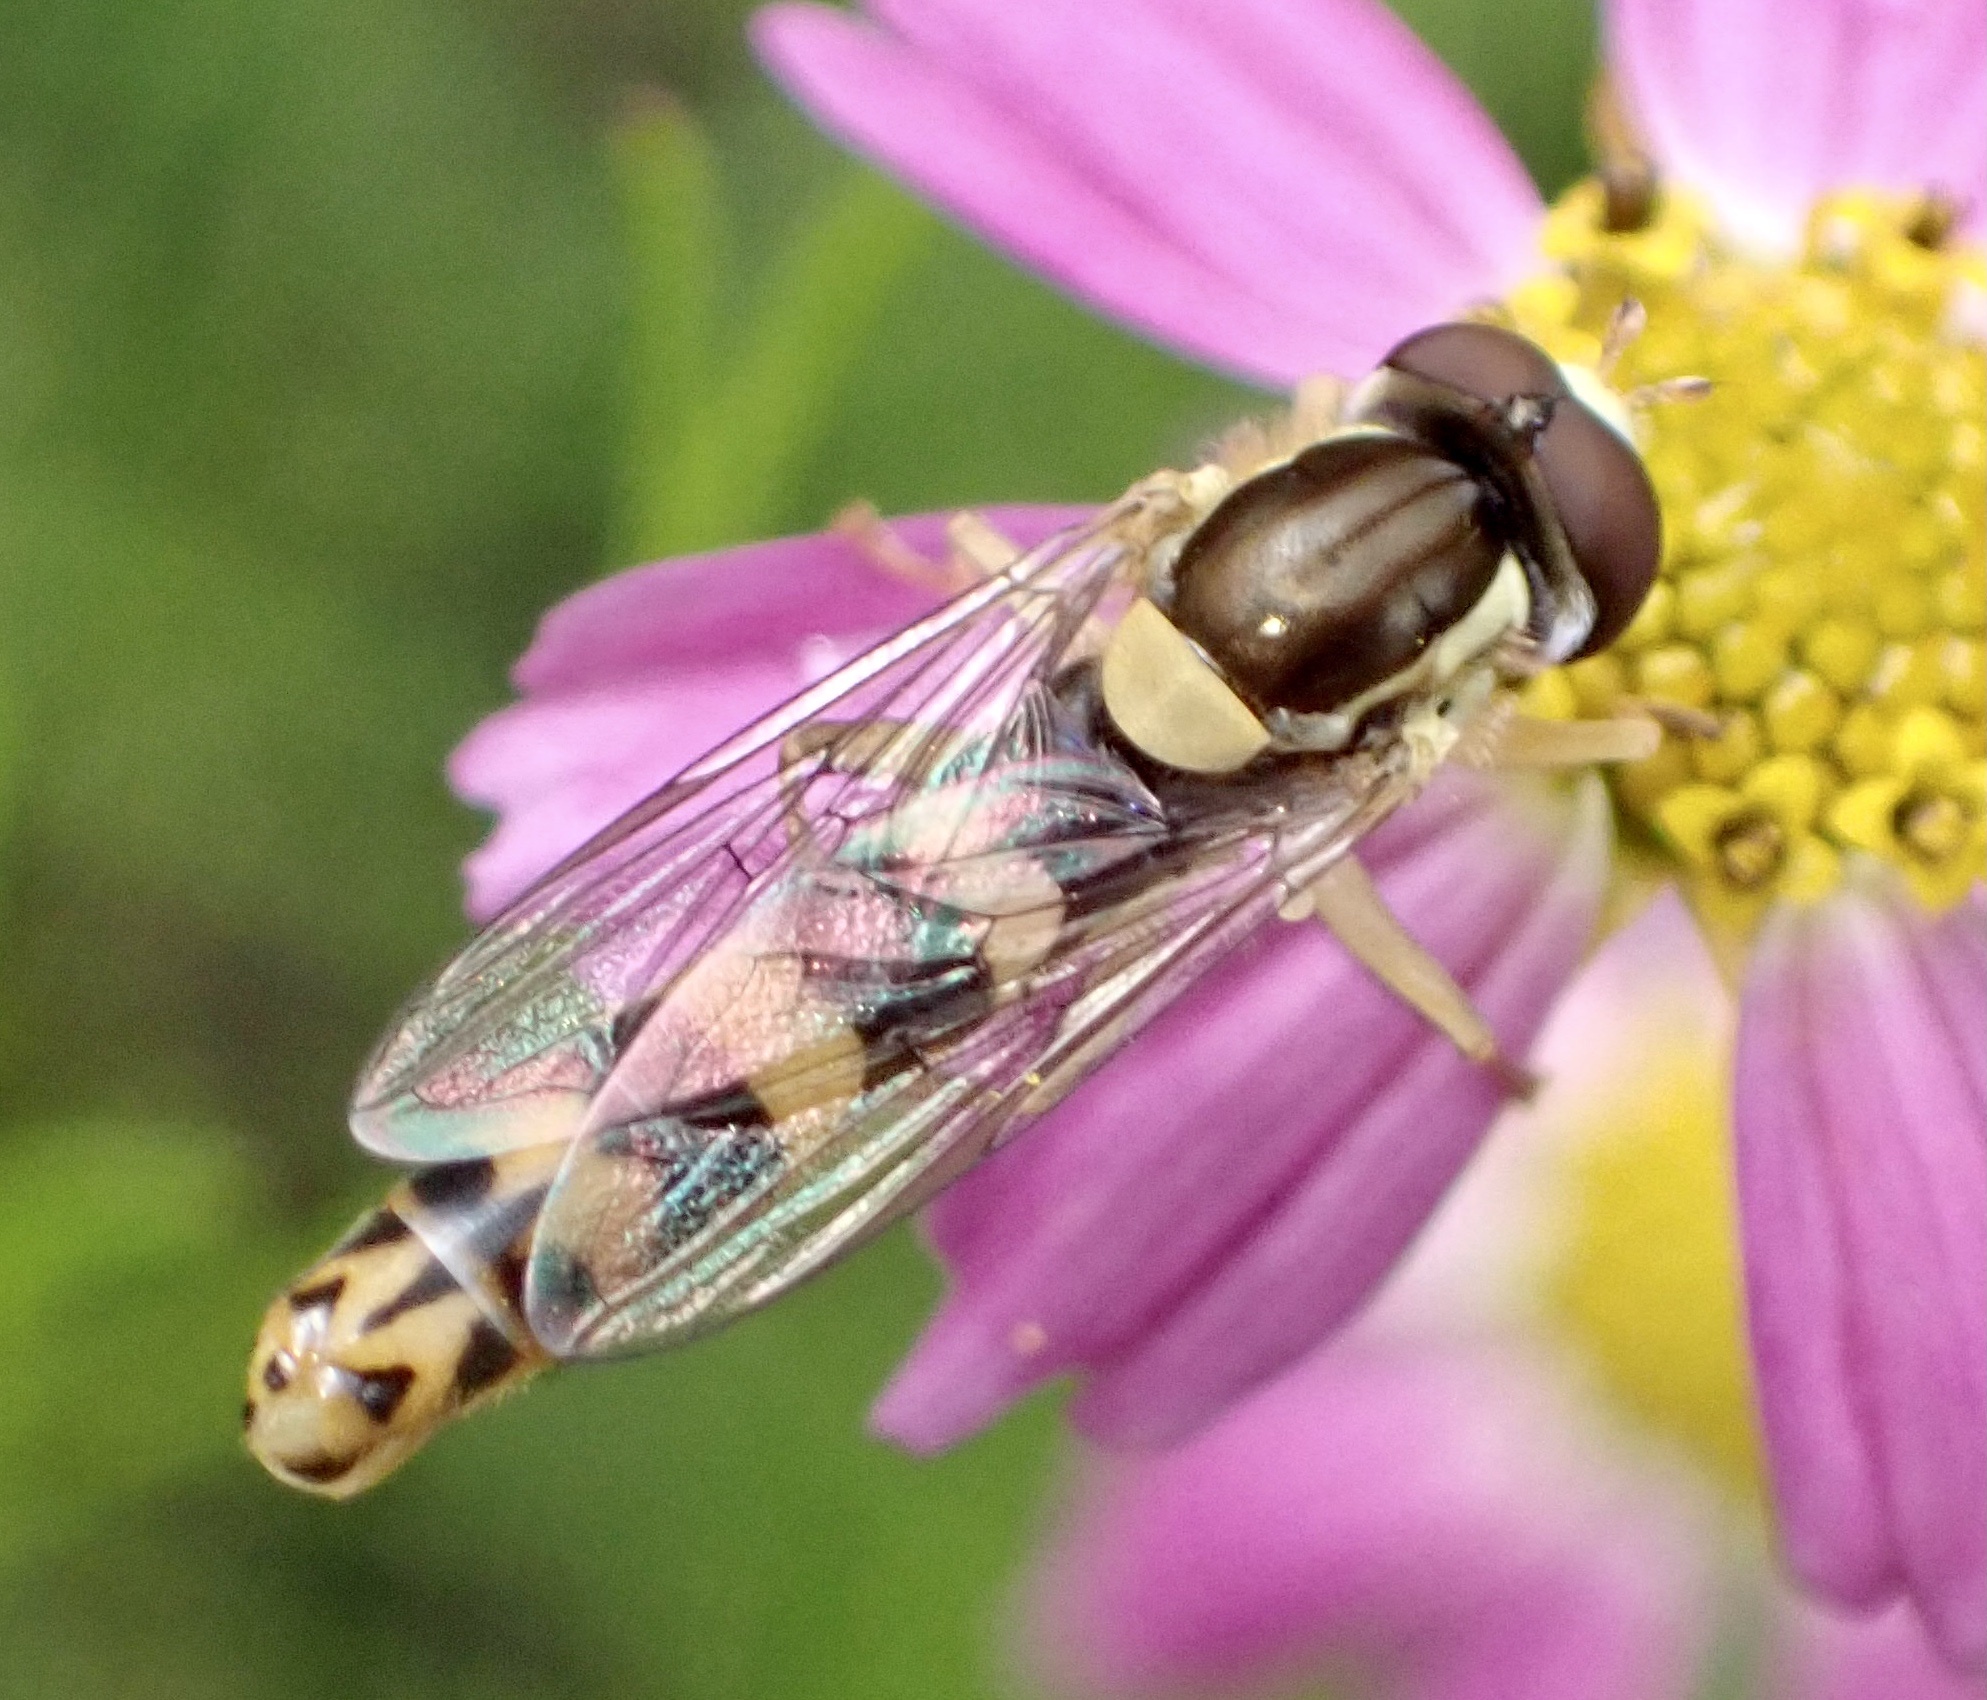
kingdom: Animalia
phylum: Arthropoda
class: Insecta
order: Diptera
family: Syrphidae
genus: Sphaerophoria
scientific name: Sphaerophoria scripta
